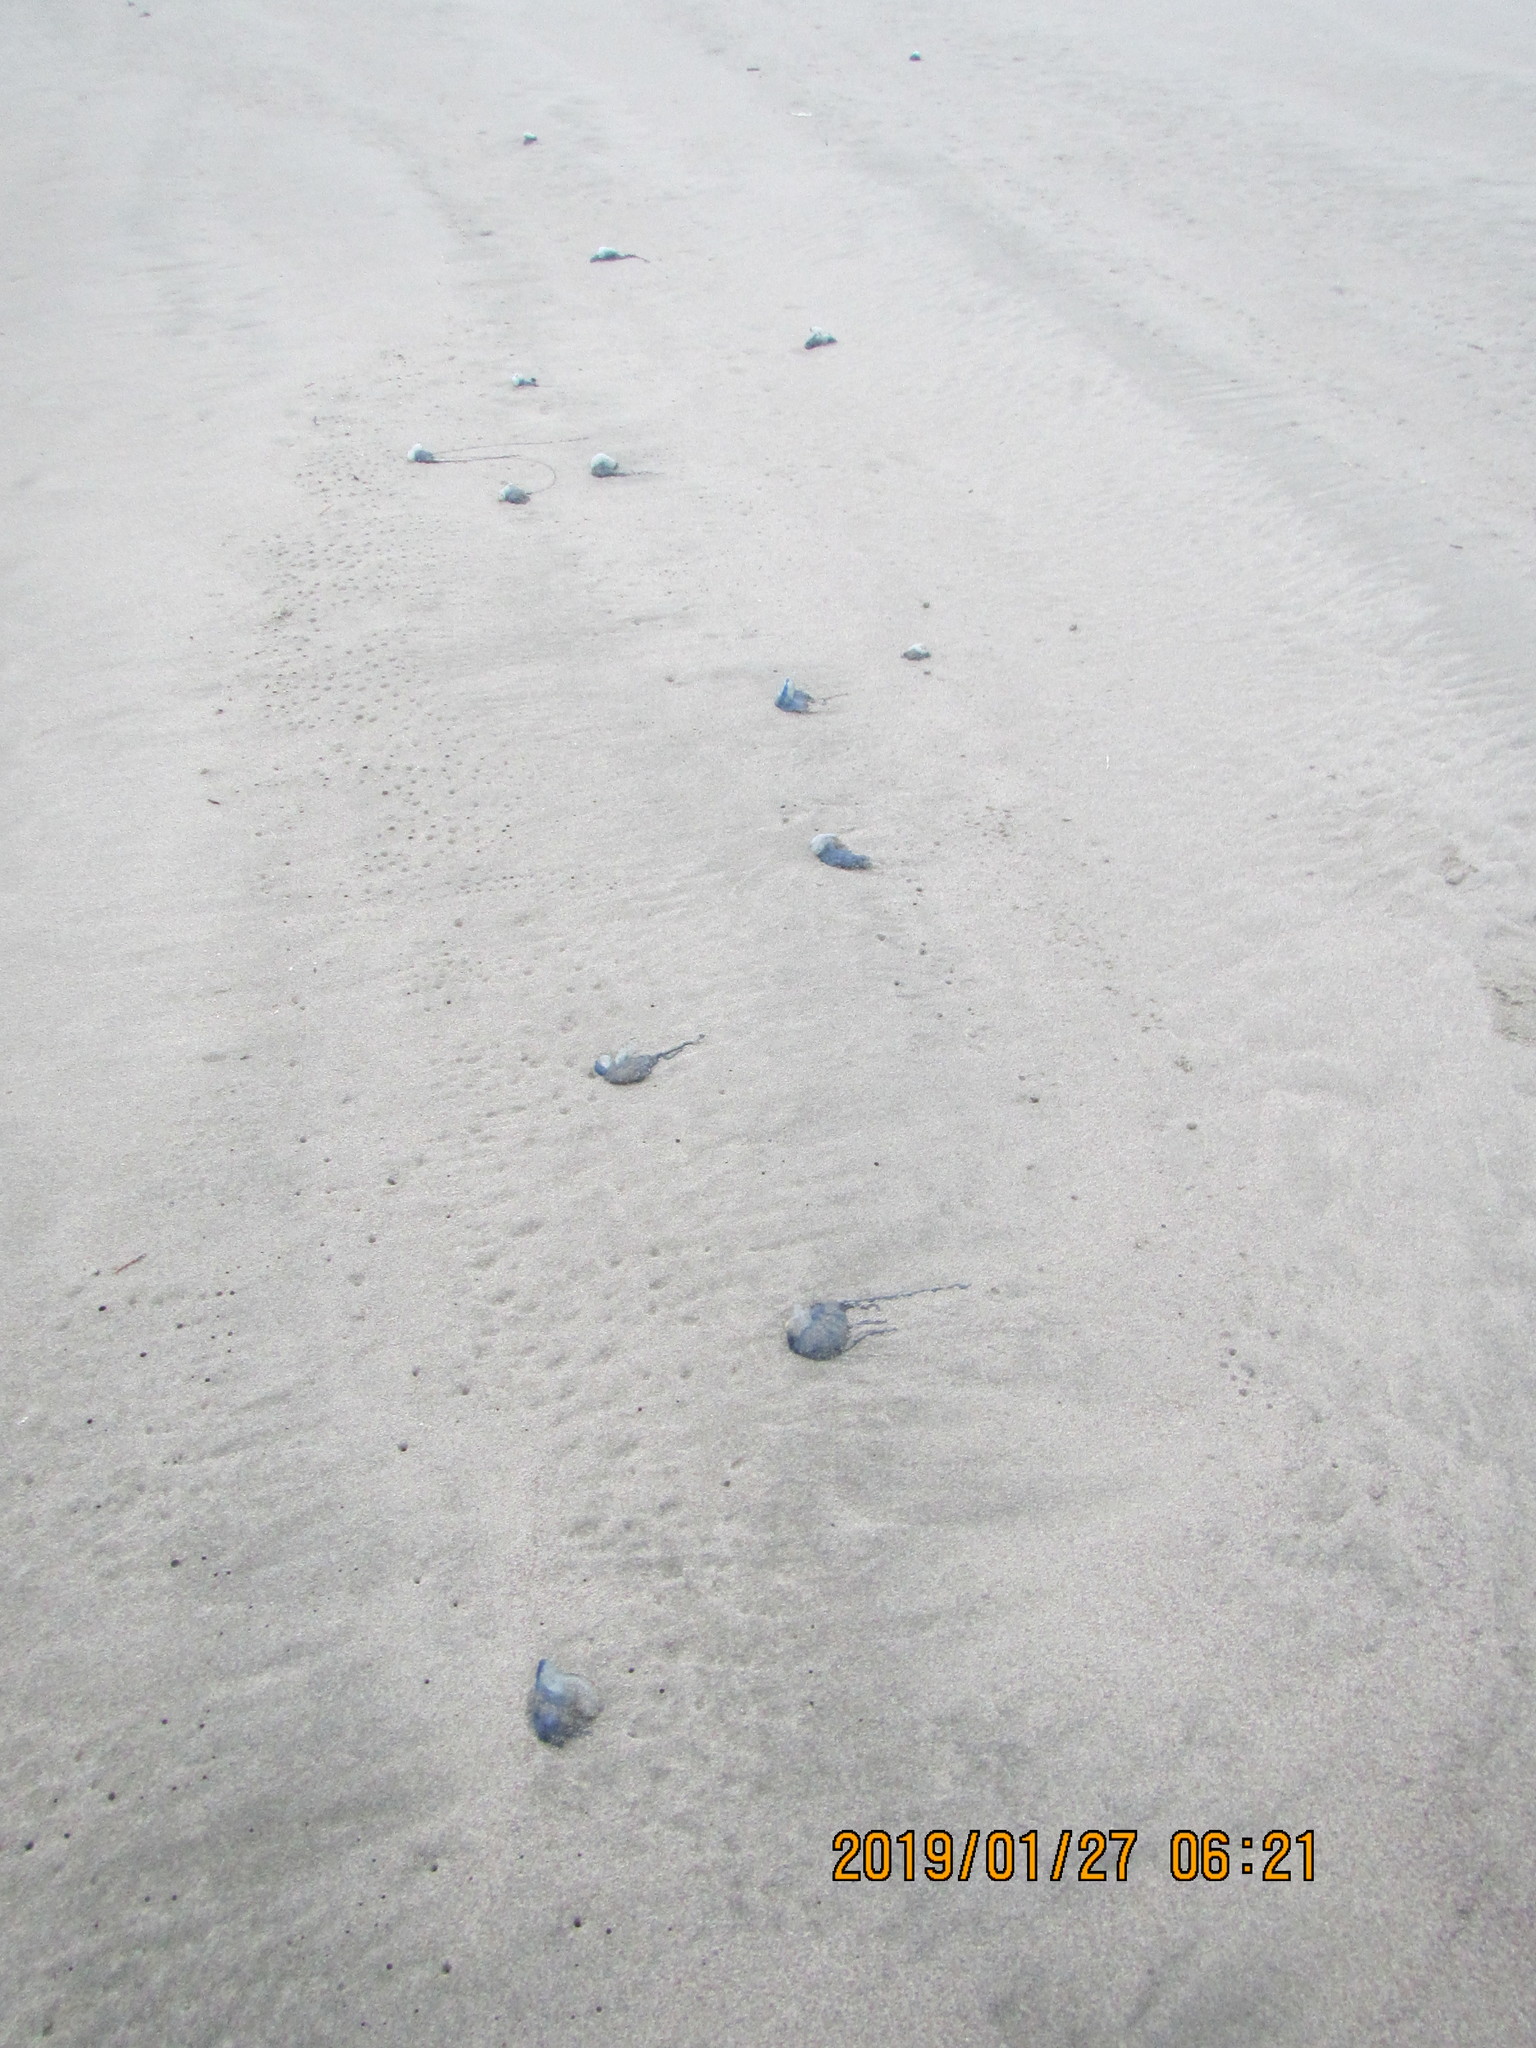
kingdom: Animalia
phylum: Cnidaria
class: Hydrozoa
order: Siphonophorae
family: Physaliidae
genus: Physalia
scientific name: Physalia physalis
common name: Portuguese man-of-war
